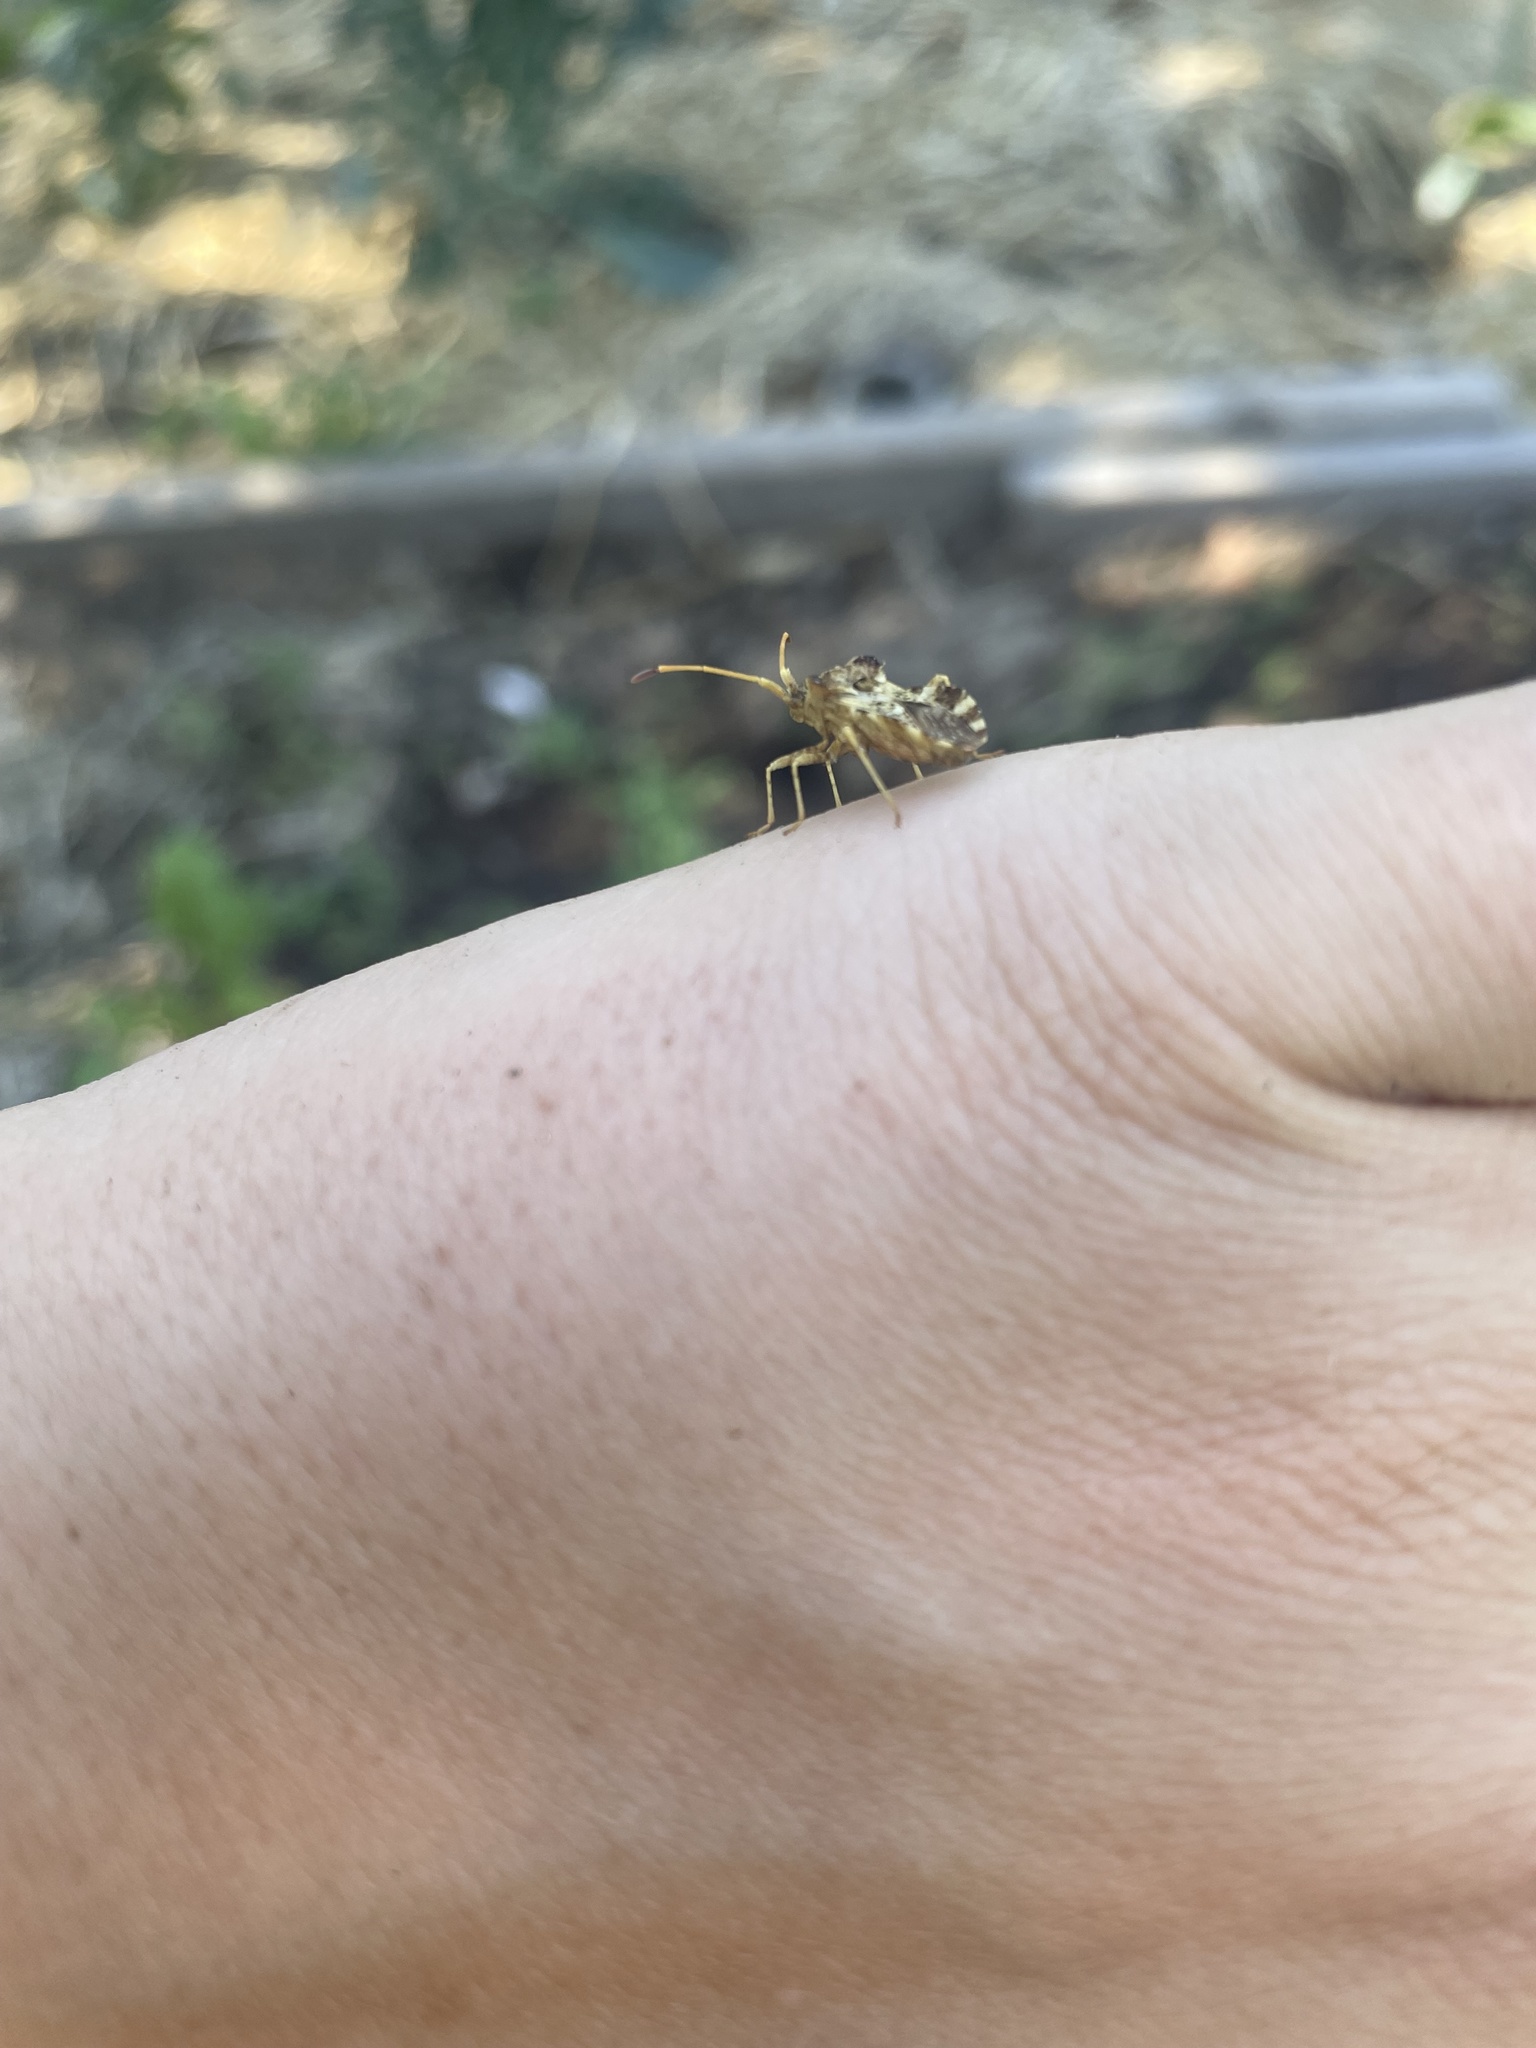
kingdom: Animalia
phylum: Arthropoda
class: Insecta
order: Hemiptera
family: Coreidae
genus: Centrocoris
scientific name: Centrocoris variegatus
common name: Leaf-footed bug
